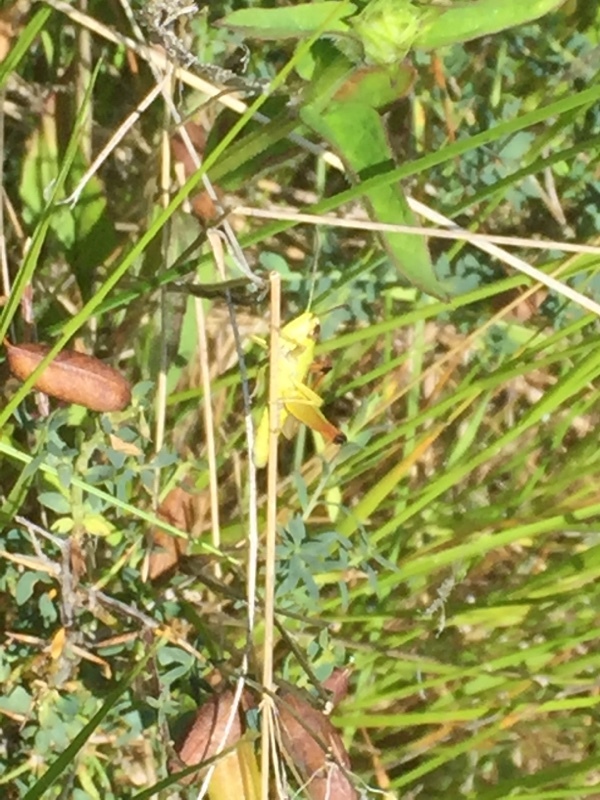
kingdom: Animalia
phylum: Arthropoda
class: Insecta
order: Orthoptera
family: Acrididae
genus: Pseudochorthippus
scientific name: Pseudochorthippus parallelus
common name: Meadow grasshopper
